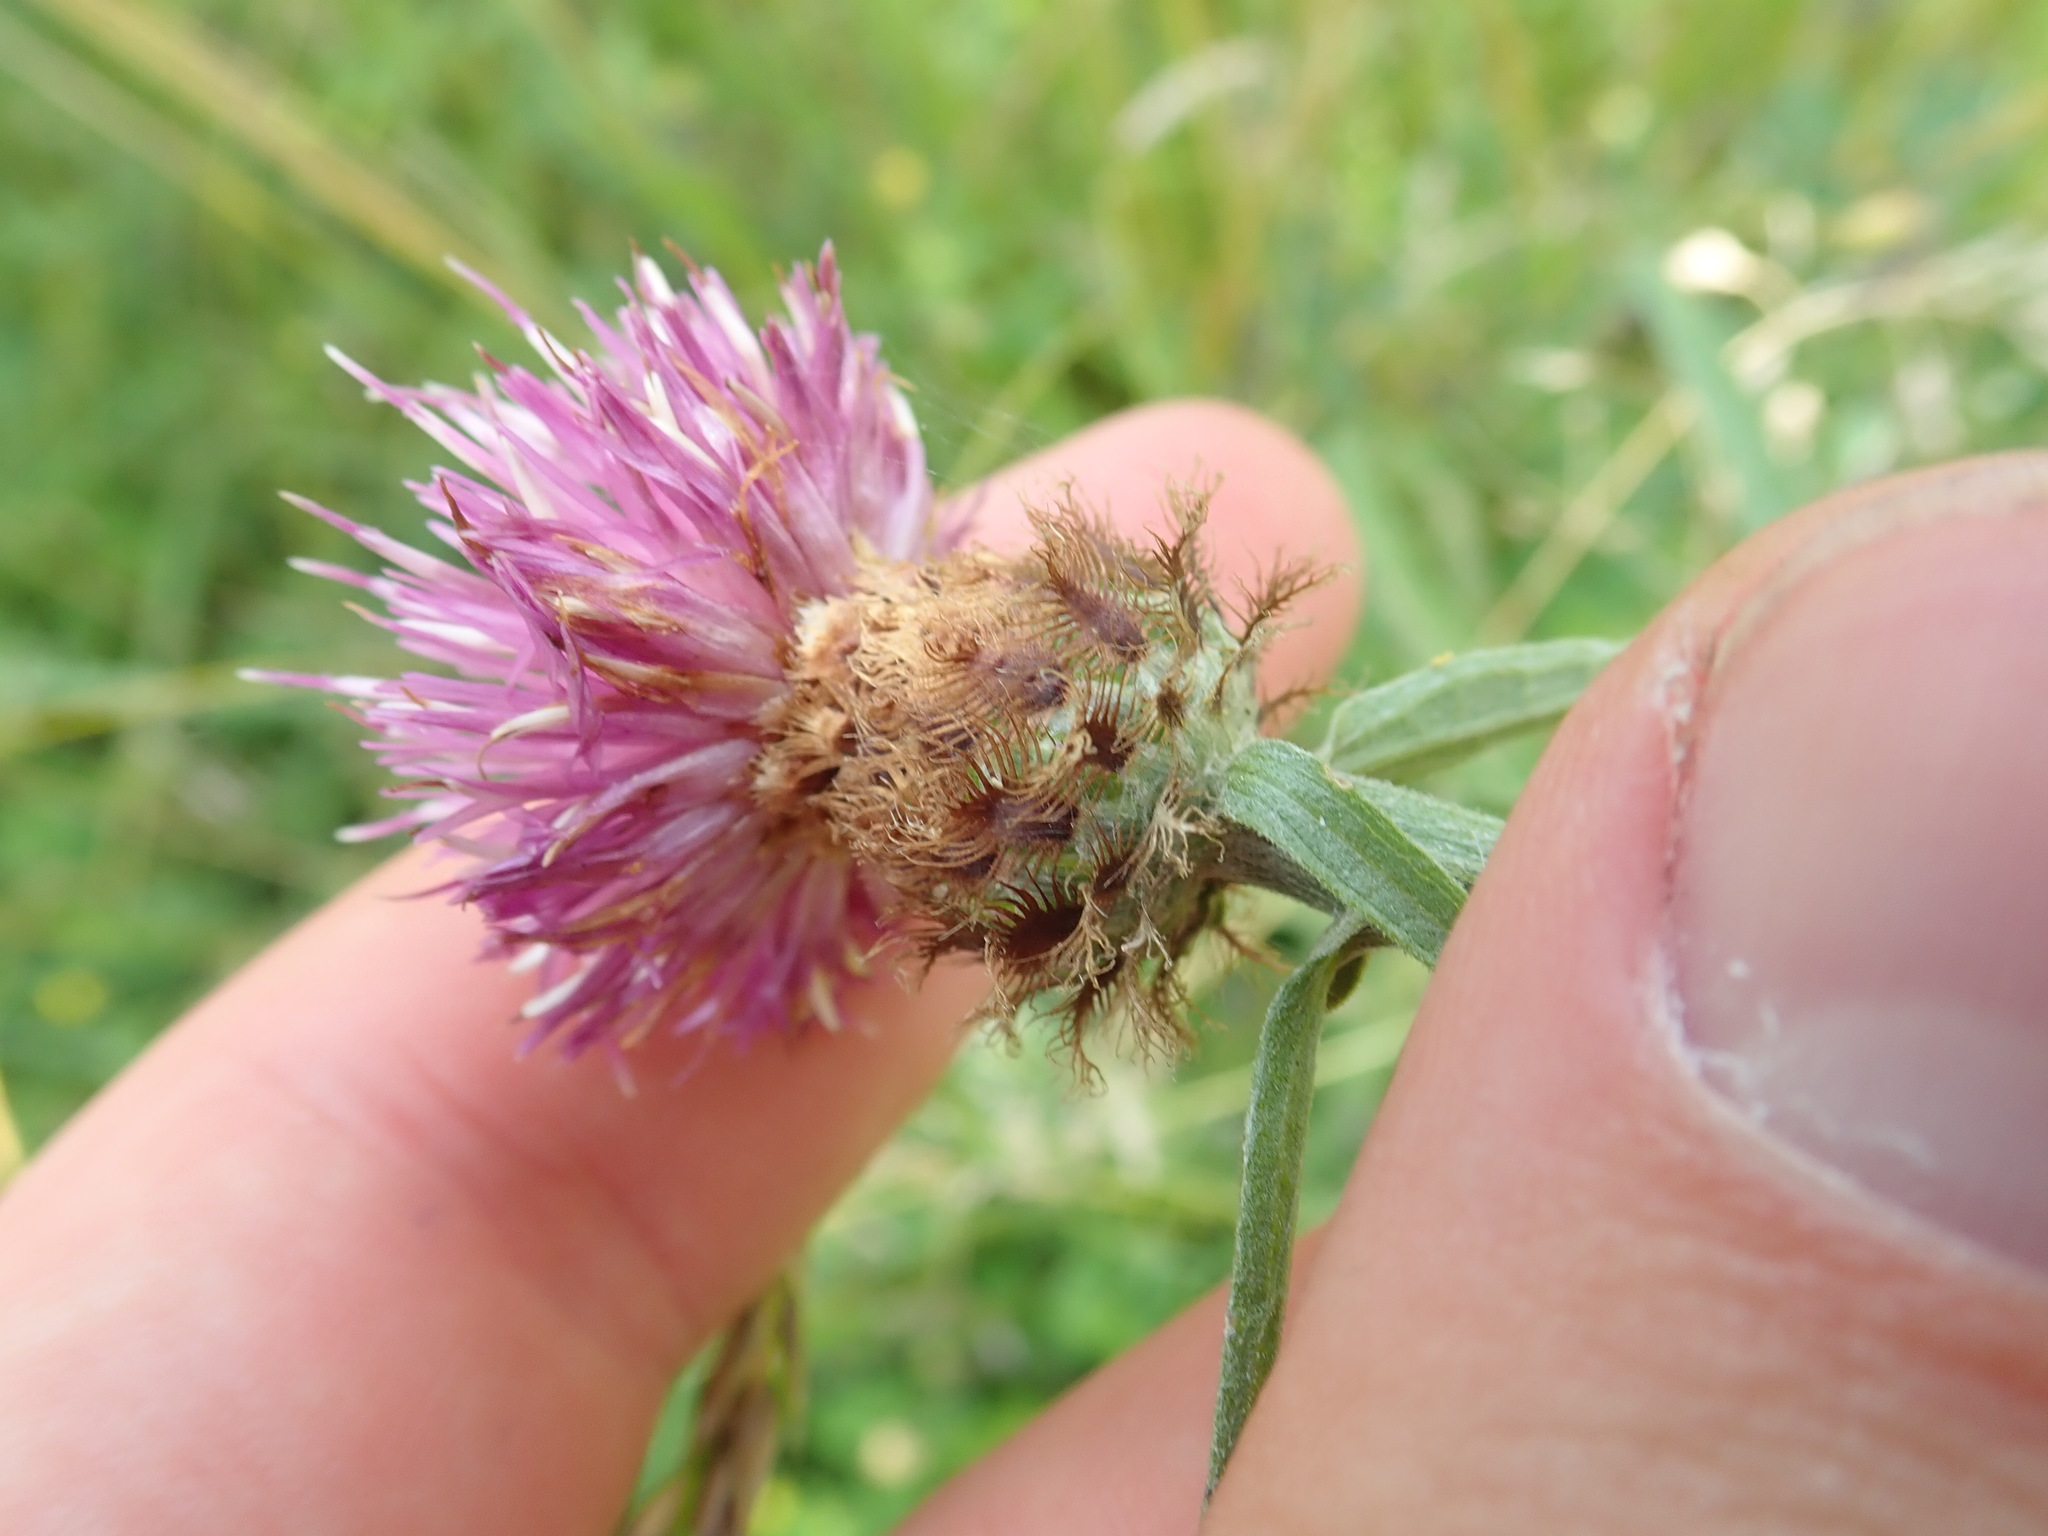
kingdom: Plantae
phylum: Tracheophyta
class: Magnoliopsida
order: Asterales
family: Asteraceae
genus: Centaurea
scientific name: Centaurea jacea
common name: Brown knapweed
